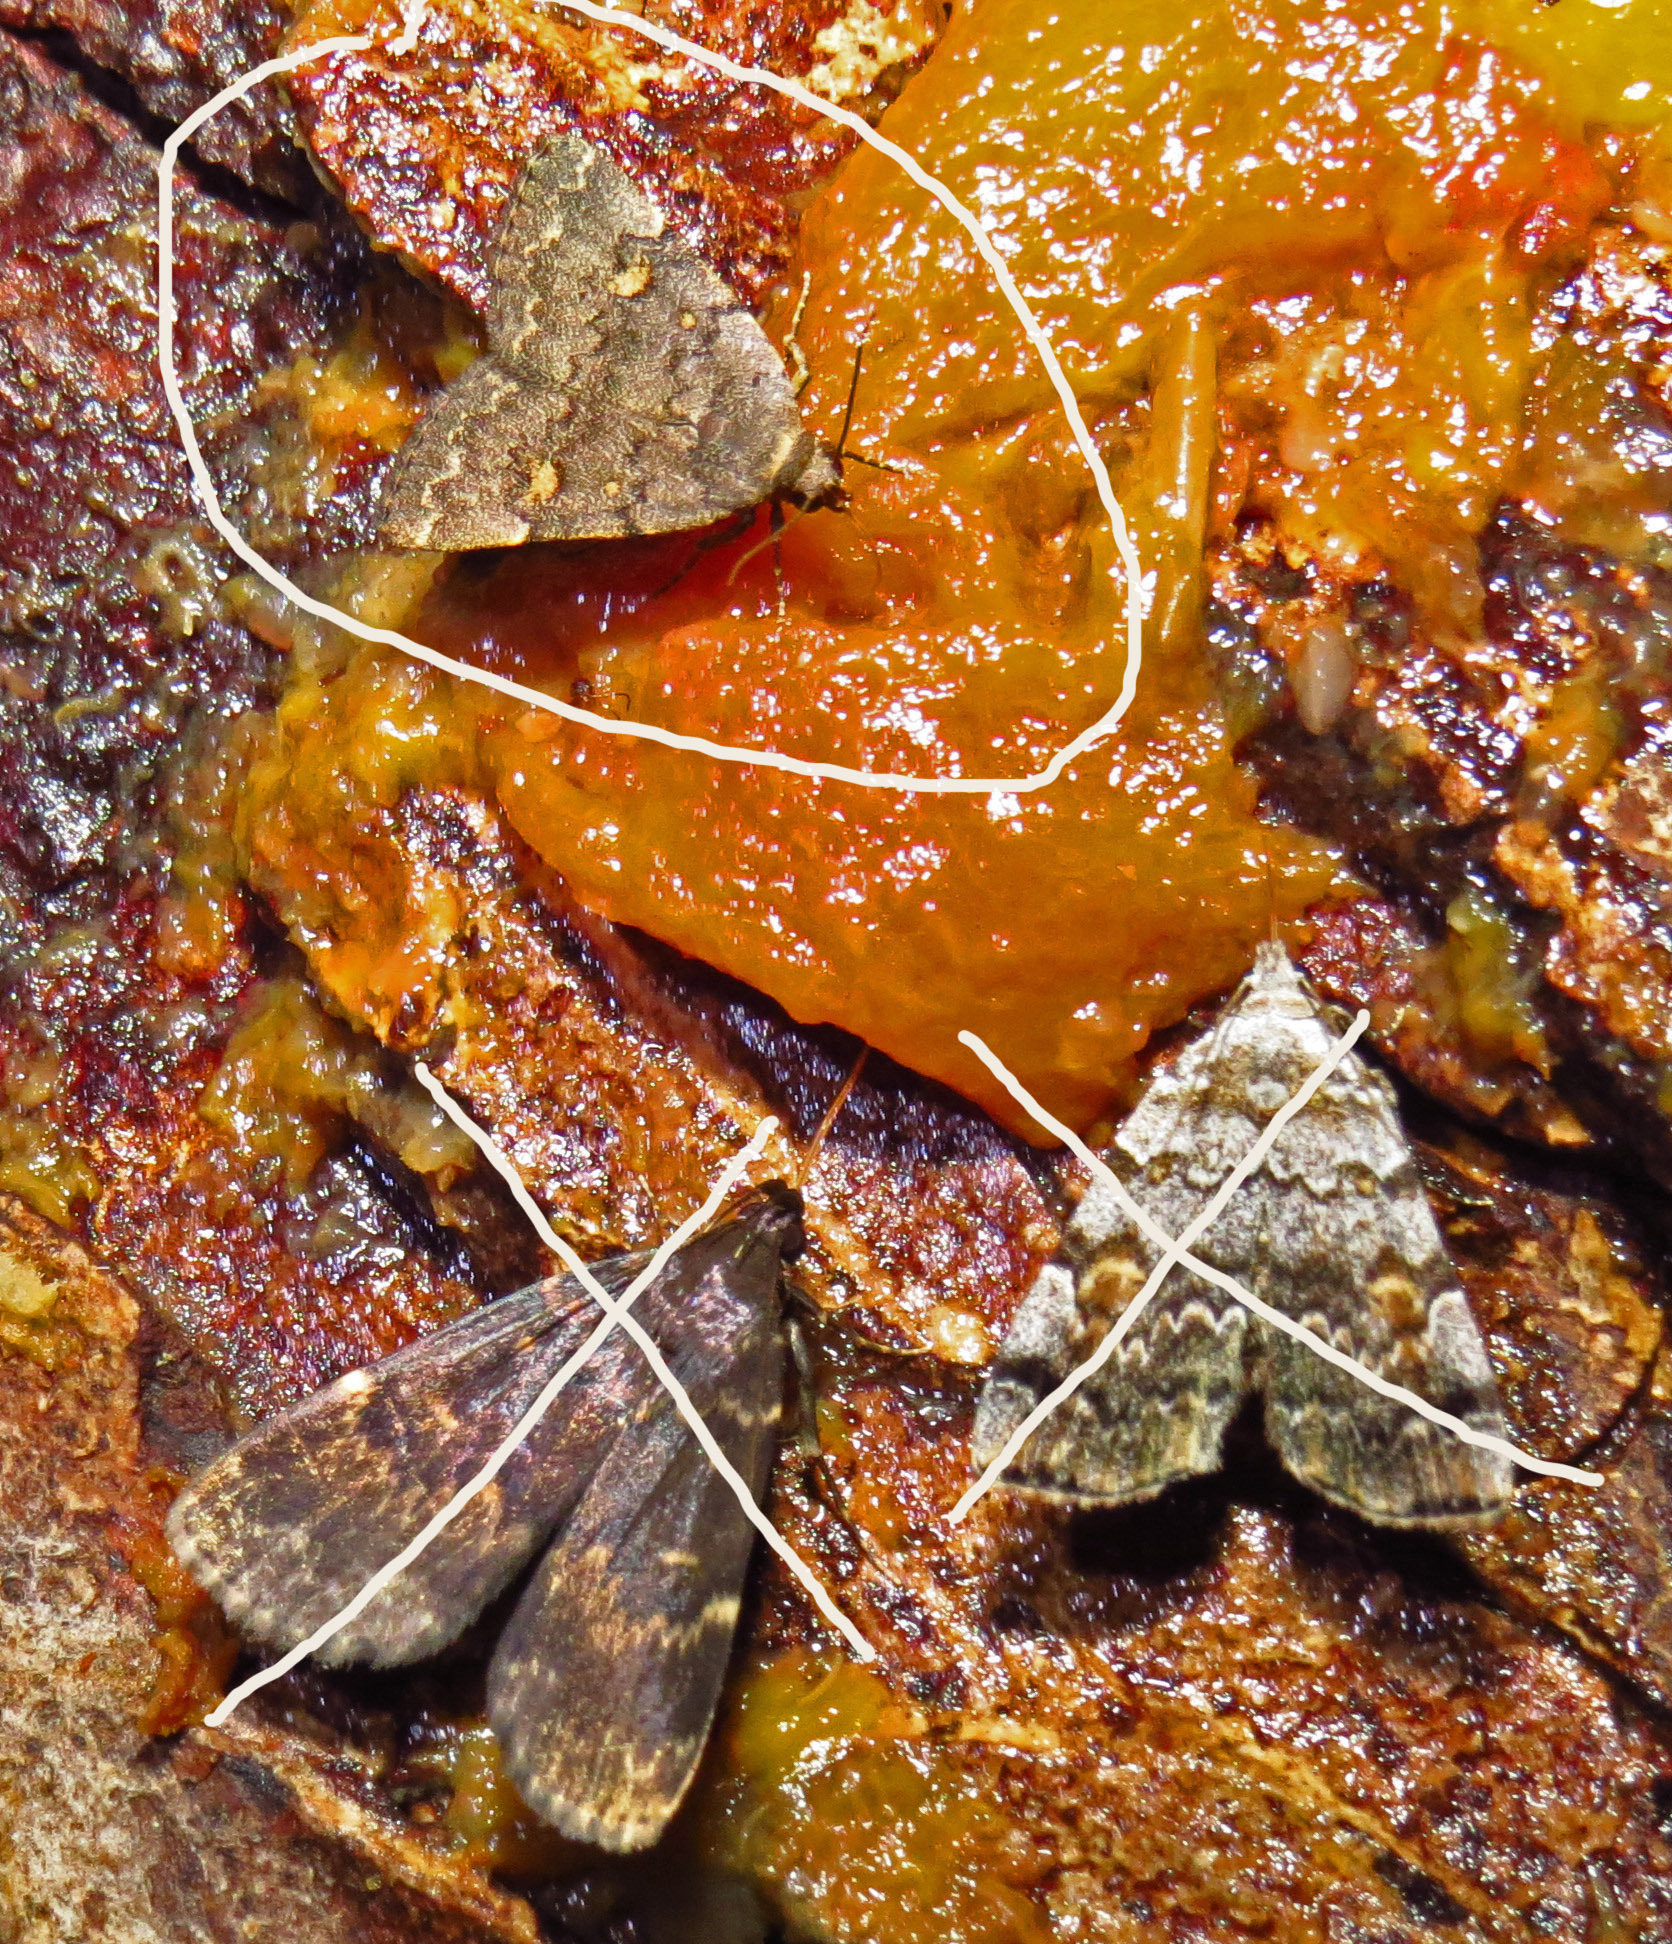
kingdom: Animalia
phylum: Arthropoda
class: Insecta
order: Lepidoptera
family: Erebidae
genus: Idia
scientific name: Idia aemula
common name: Common idia moth
